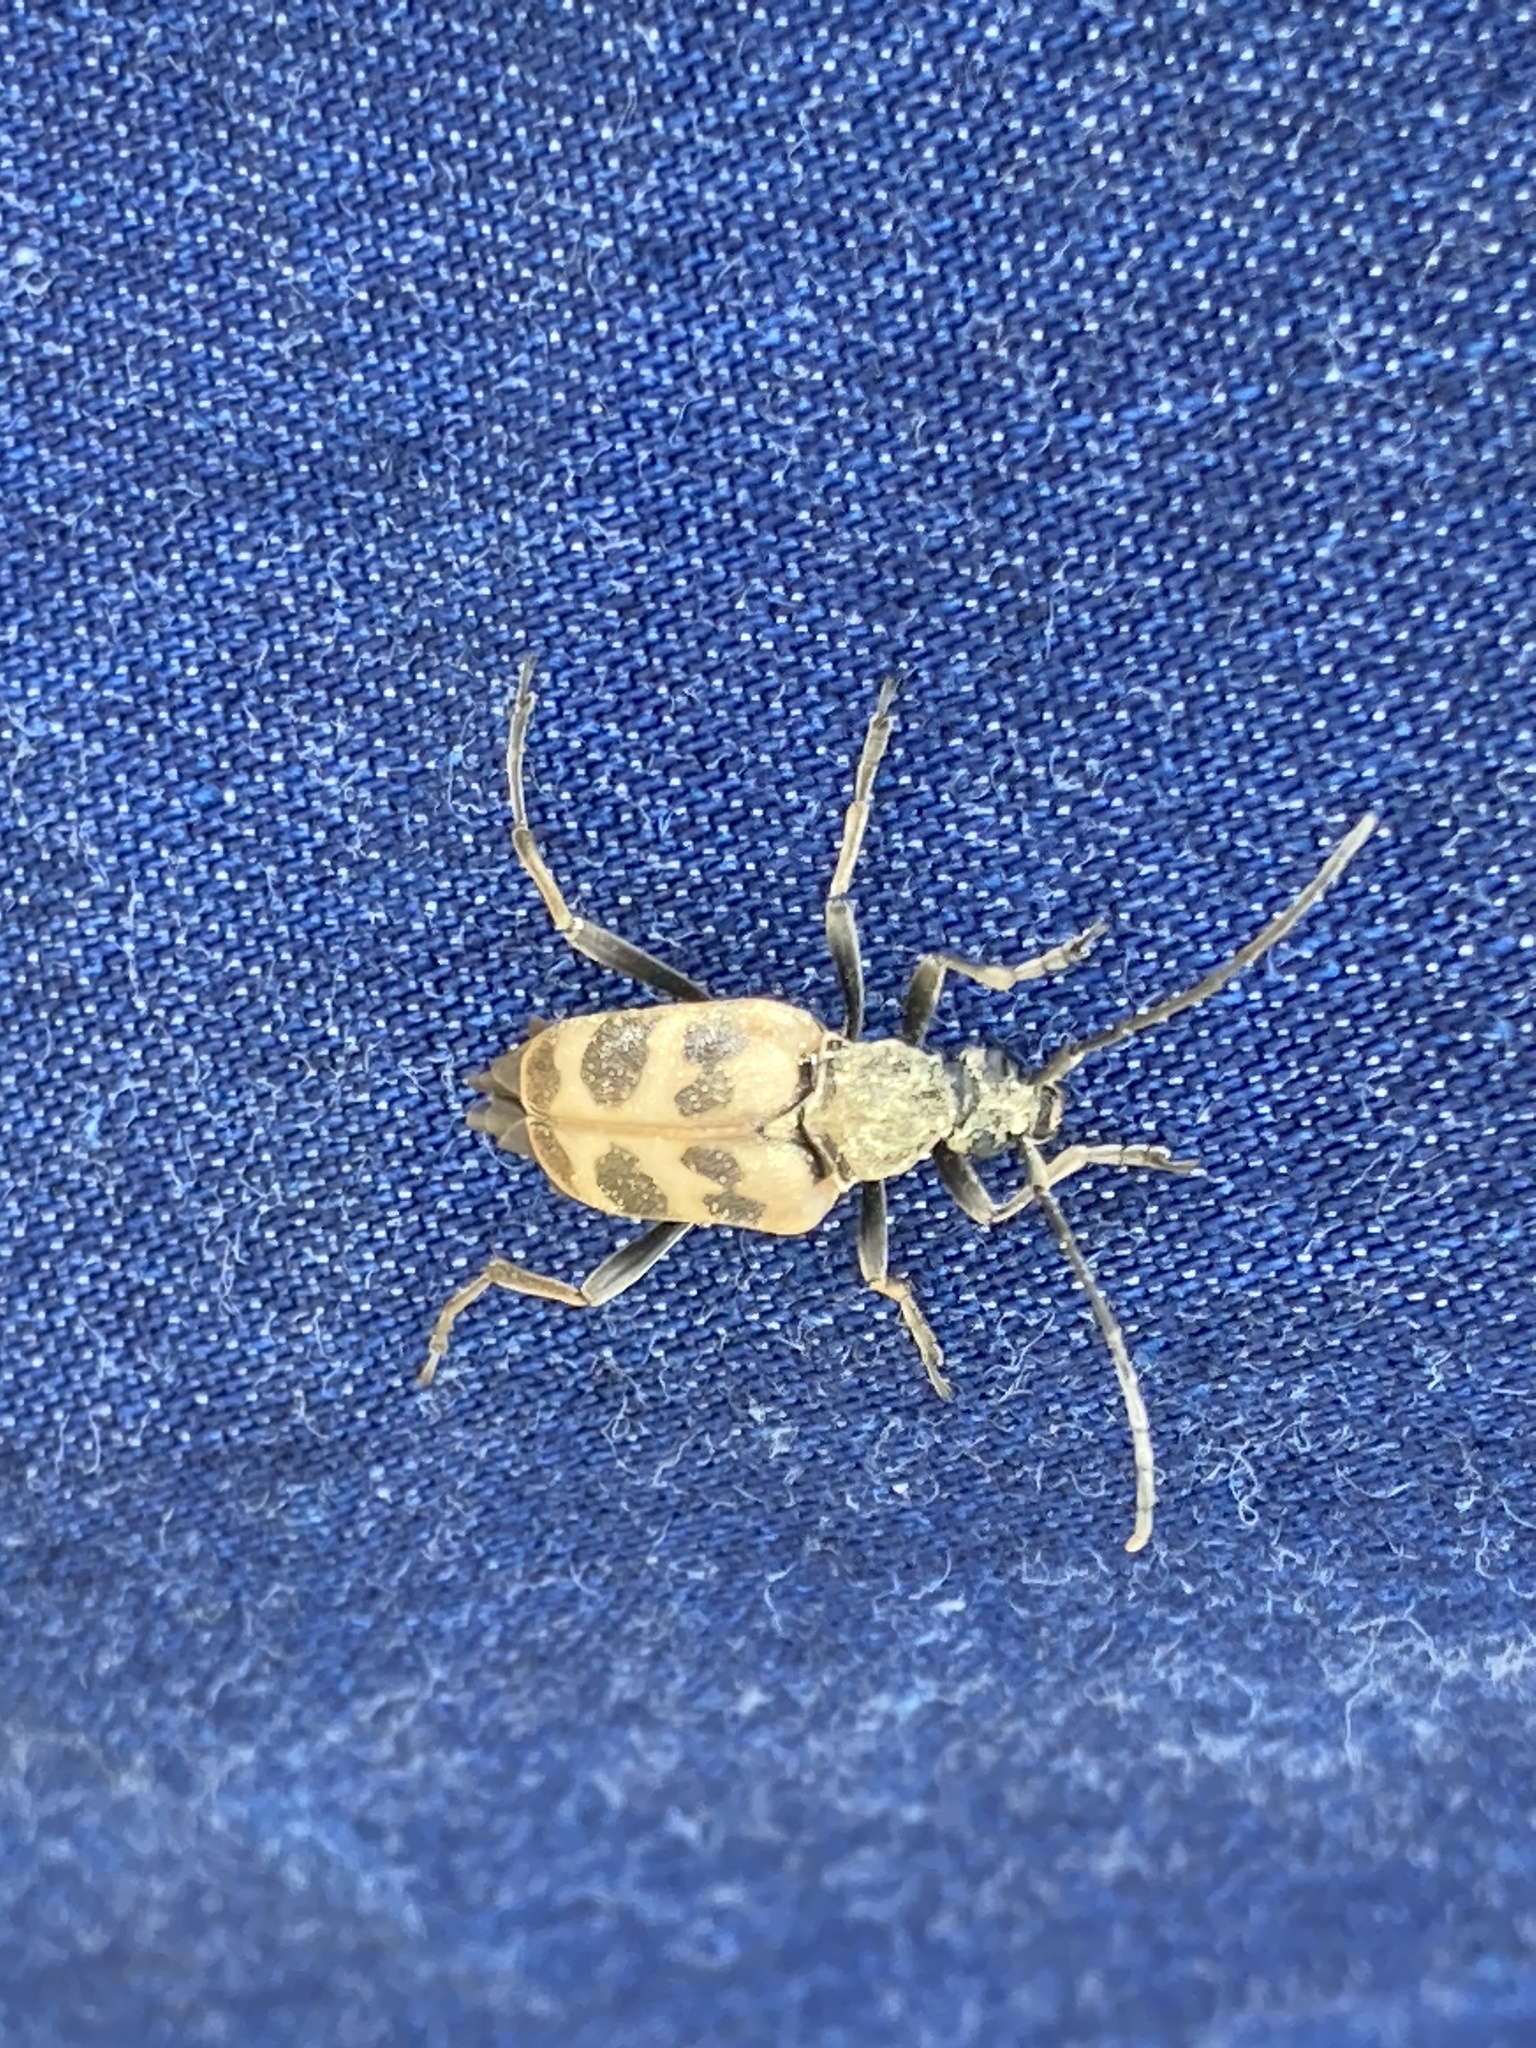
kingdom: Animalia
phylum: Arthropoda
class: Insecta
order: Coleoptera
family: Cerambycidae
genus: Pachytodes
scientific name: Pachytodes cerambyciformis
